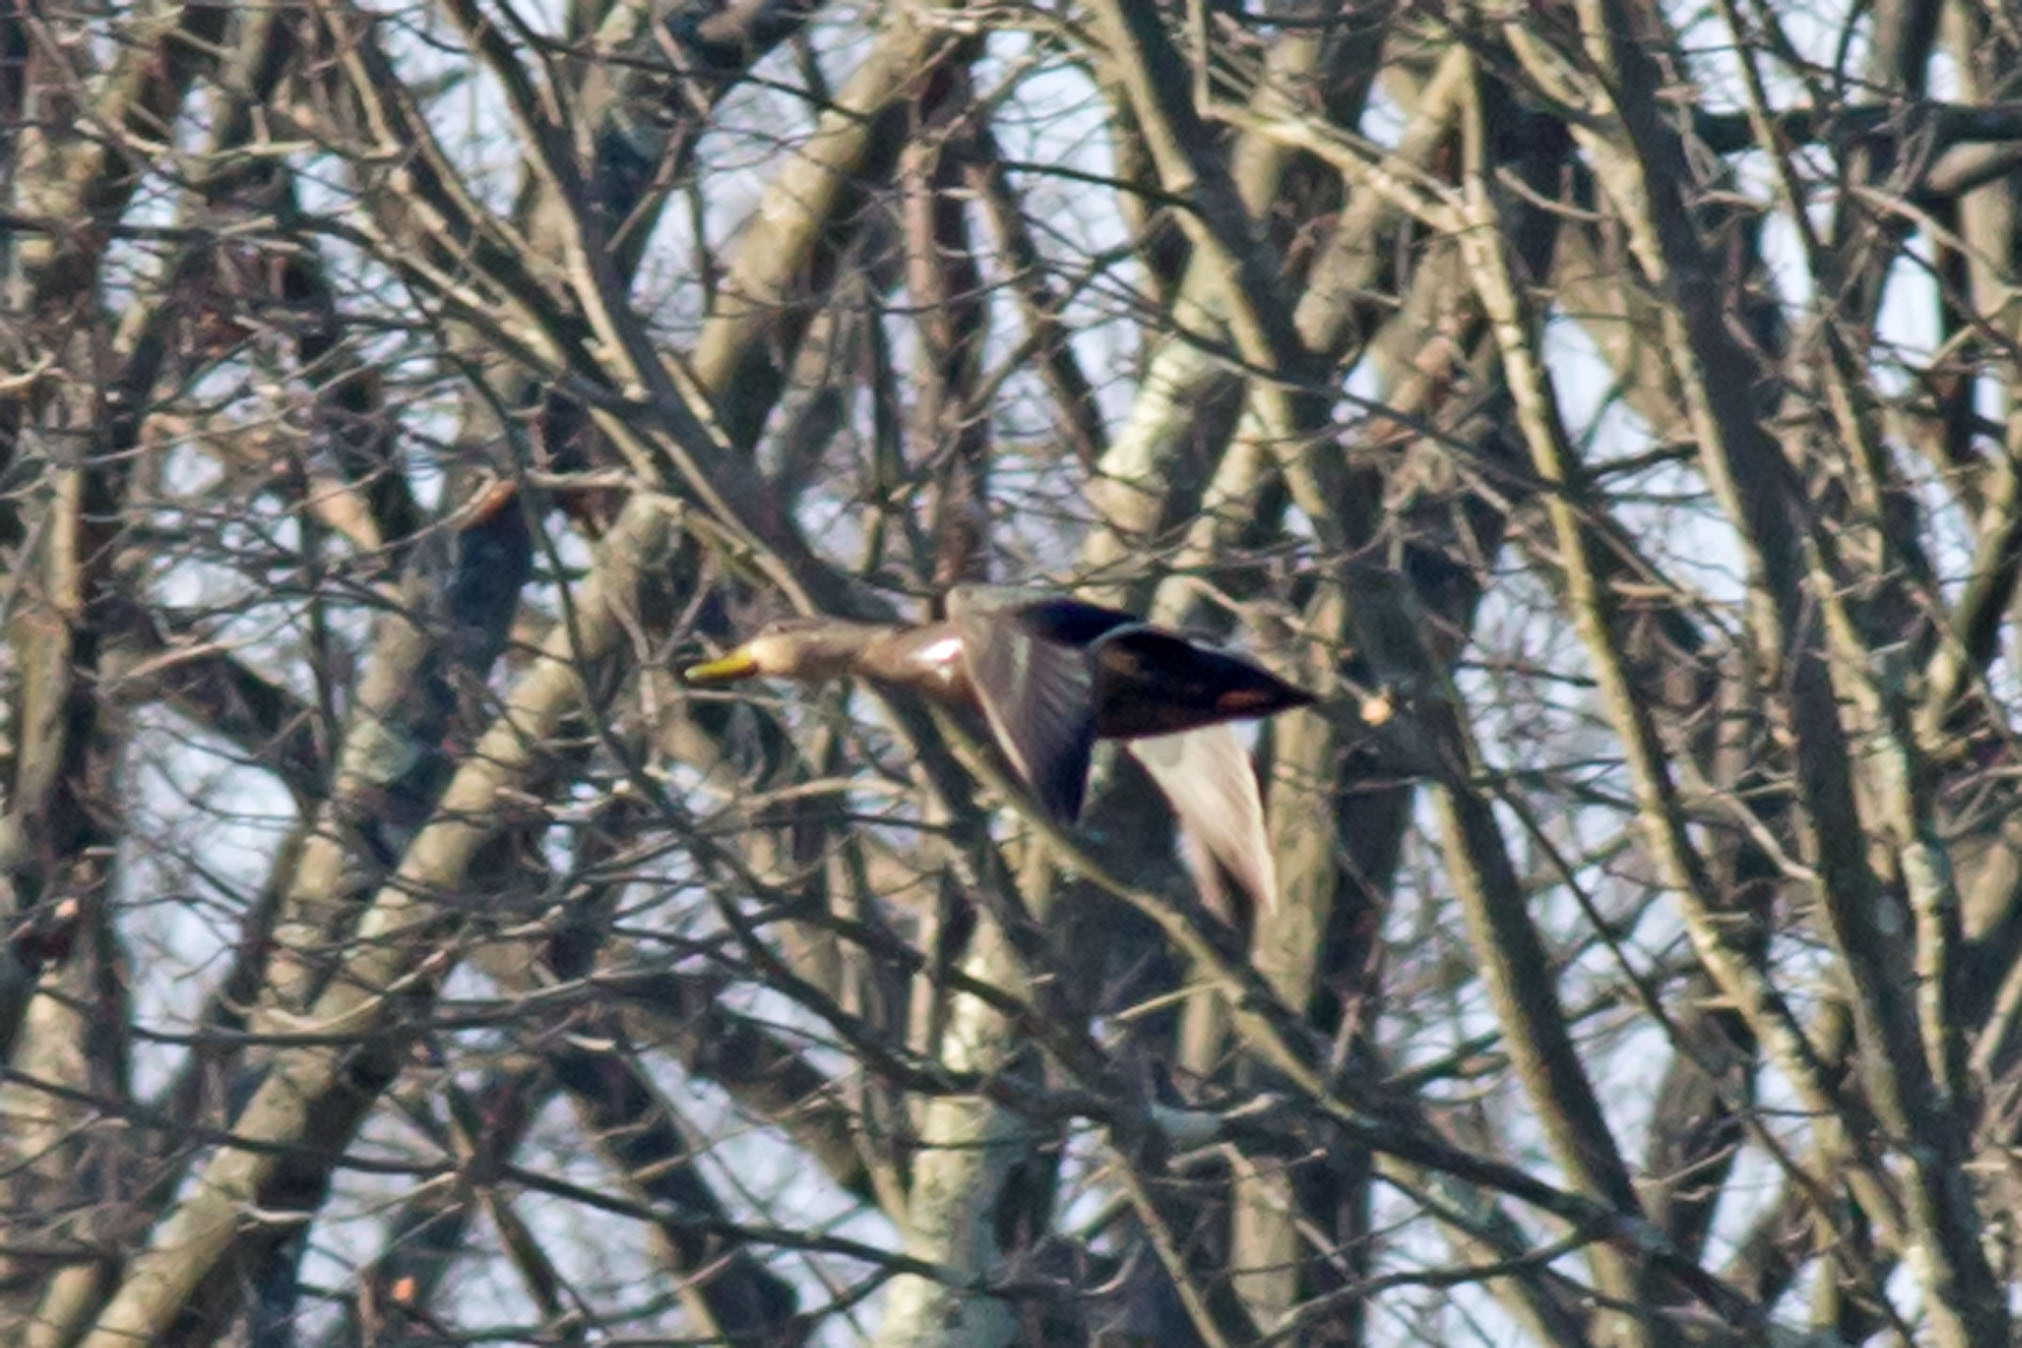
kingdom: Animalia
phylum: Chordata
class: Aves
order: Anseriformes
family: Anatidae
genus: Anas
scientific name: Anas rubripes
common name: American black duck
